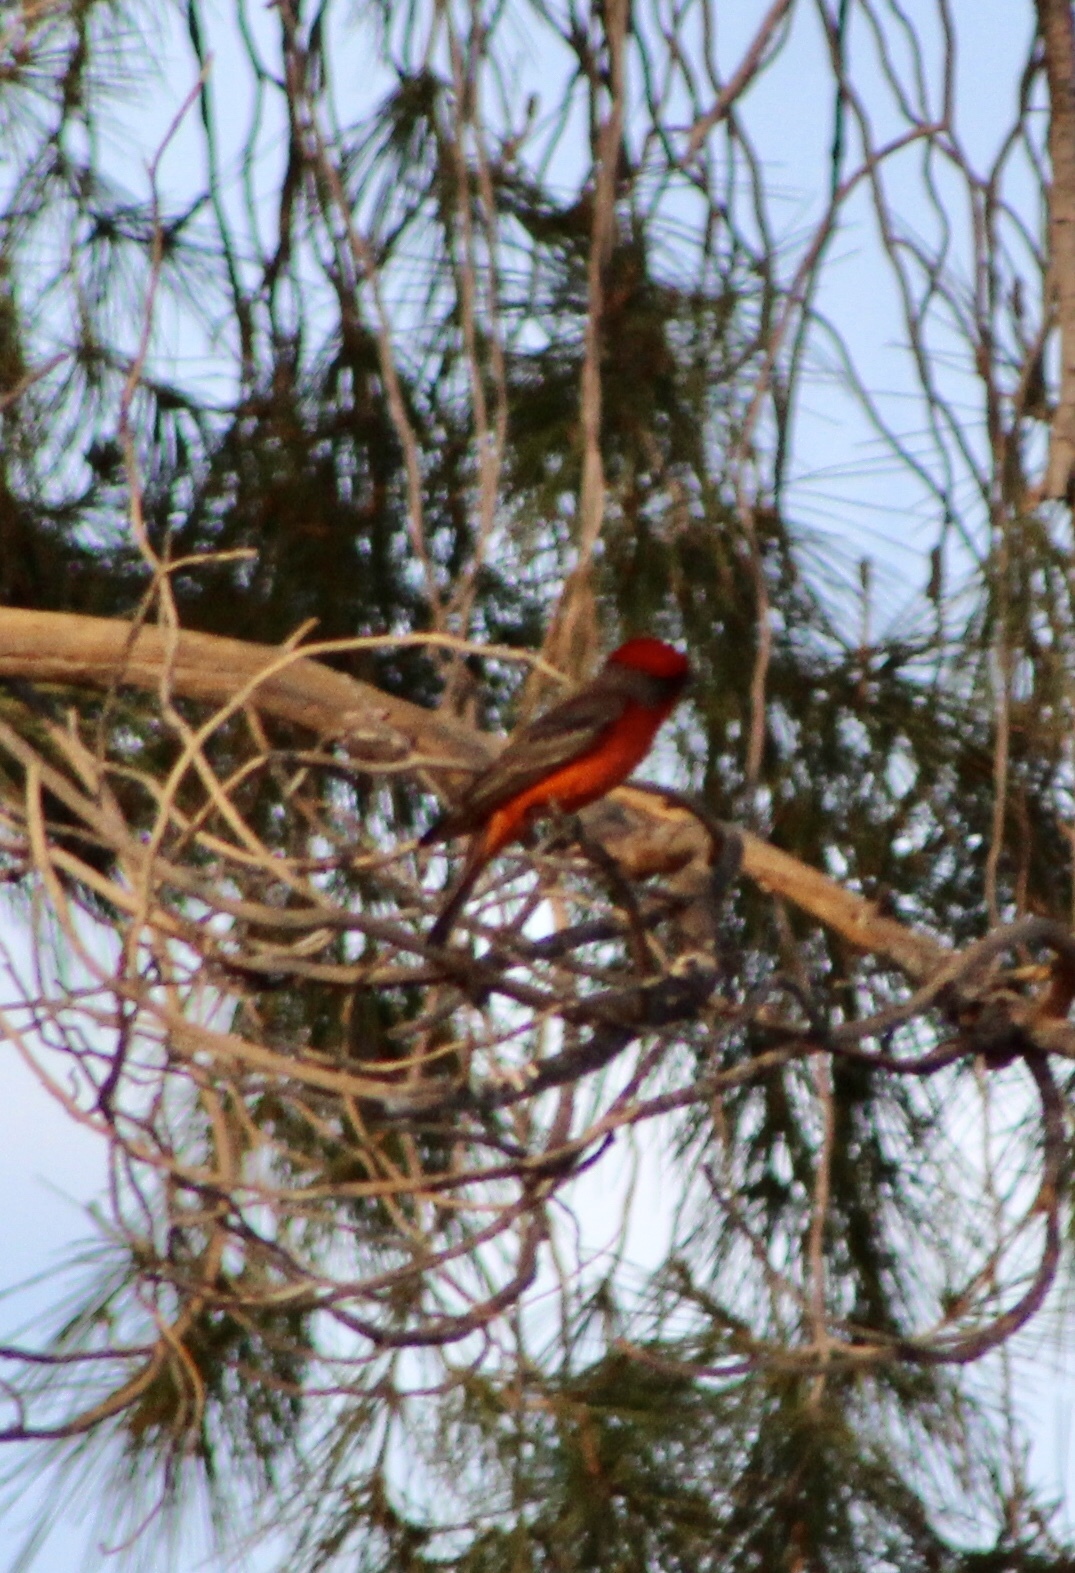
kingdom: Animalia
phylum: Chordata
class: Aves
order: Passeriformes
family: Tyrannidae
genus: Pyrocephalus
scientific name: Pyrocephalus rubinus
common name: Vermilion flycatcher
